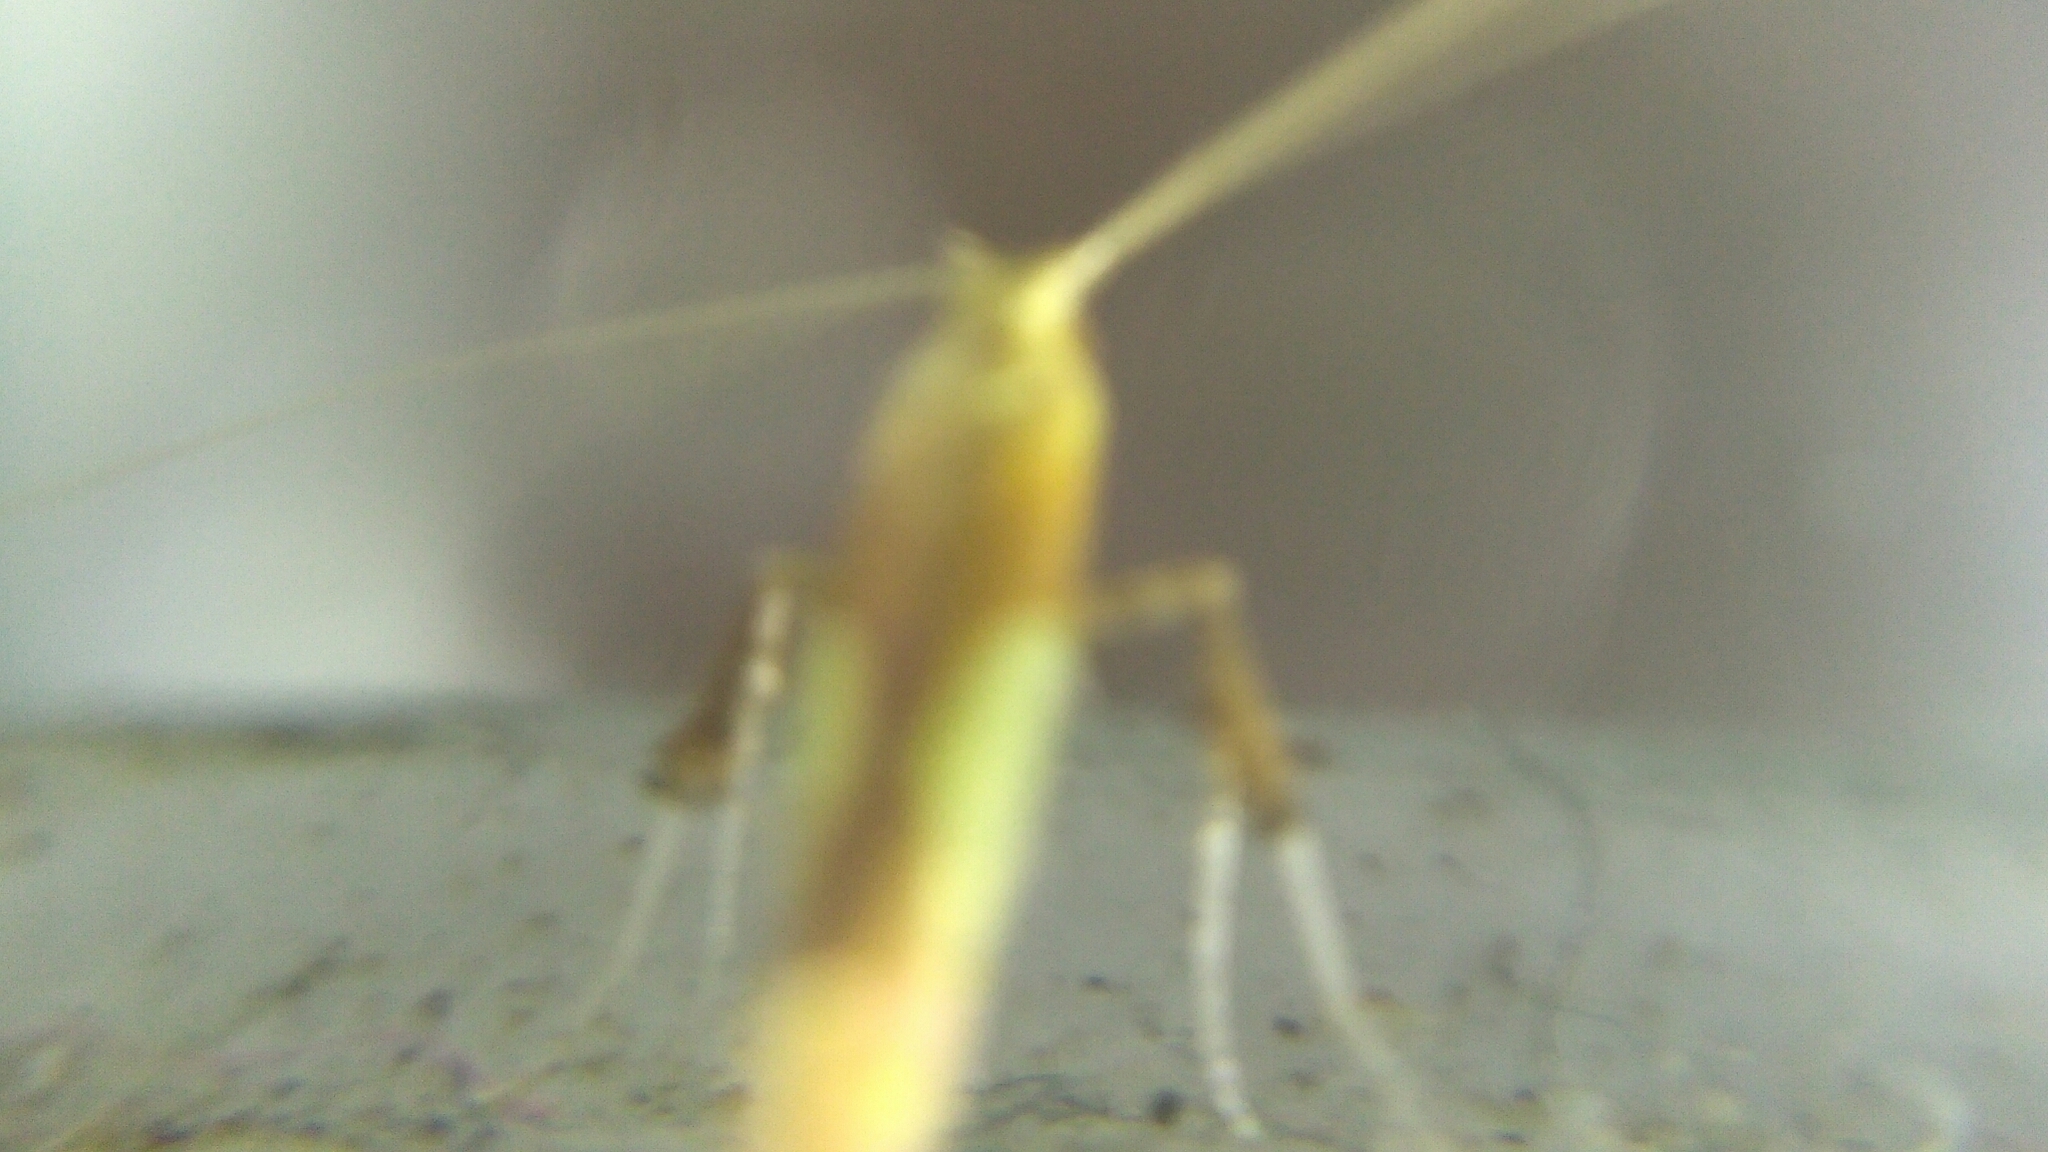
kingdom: Animalia
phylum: Arthropoda
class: Insecta
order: Lepidoptera
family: Gracillariidae
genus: Caloptilia
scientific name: Caloptilia
